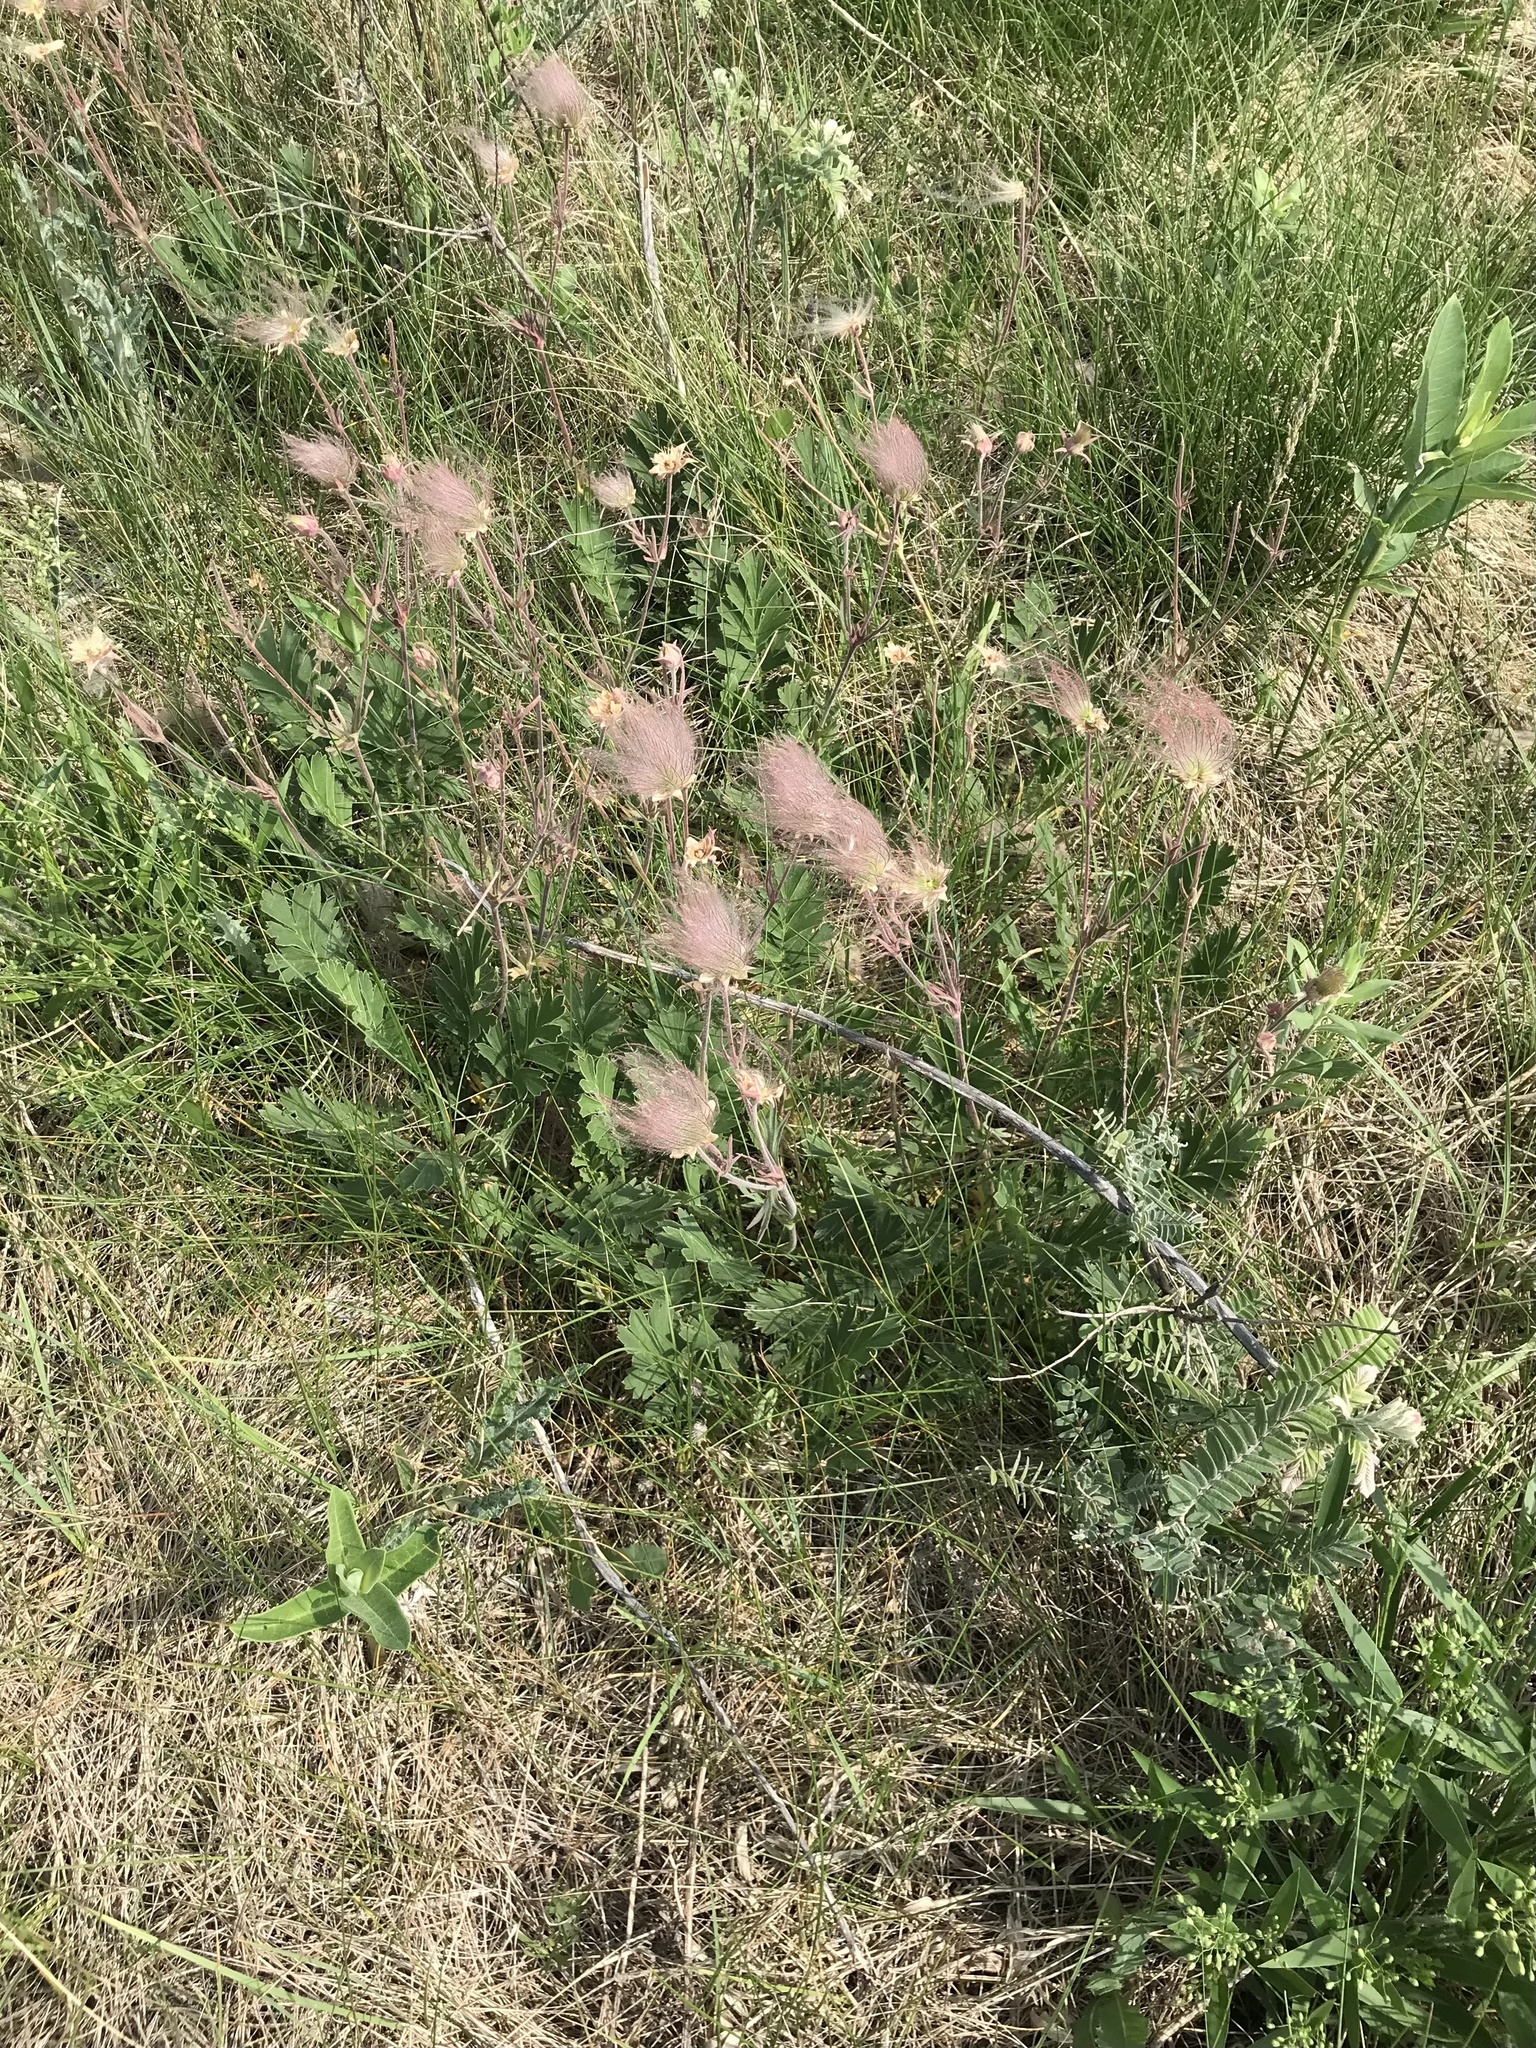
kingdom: Plantae
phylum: Tracheophyta
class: Magnoliopsida
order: Rosales
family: Rosaceae
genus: Geum
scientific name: Geum triflorum
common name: Old man's whiskers
